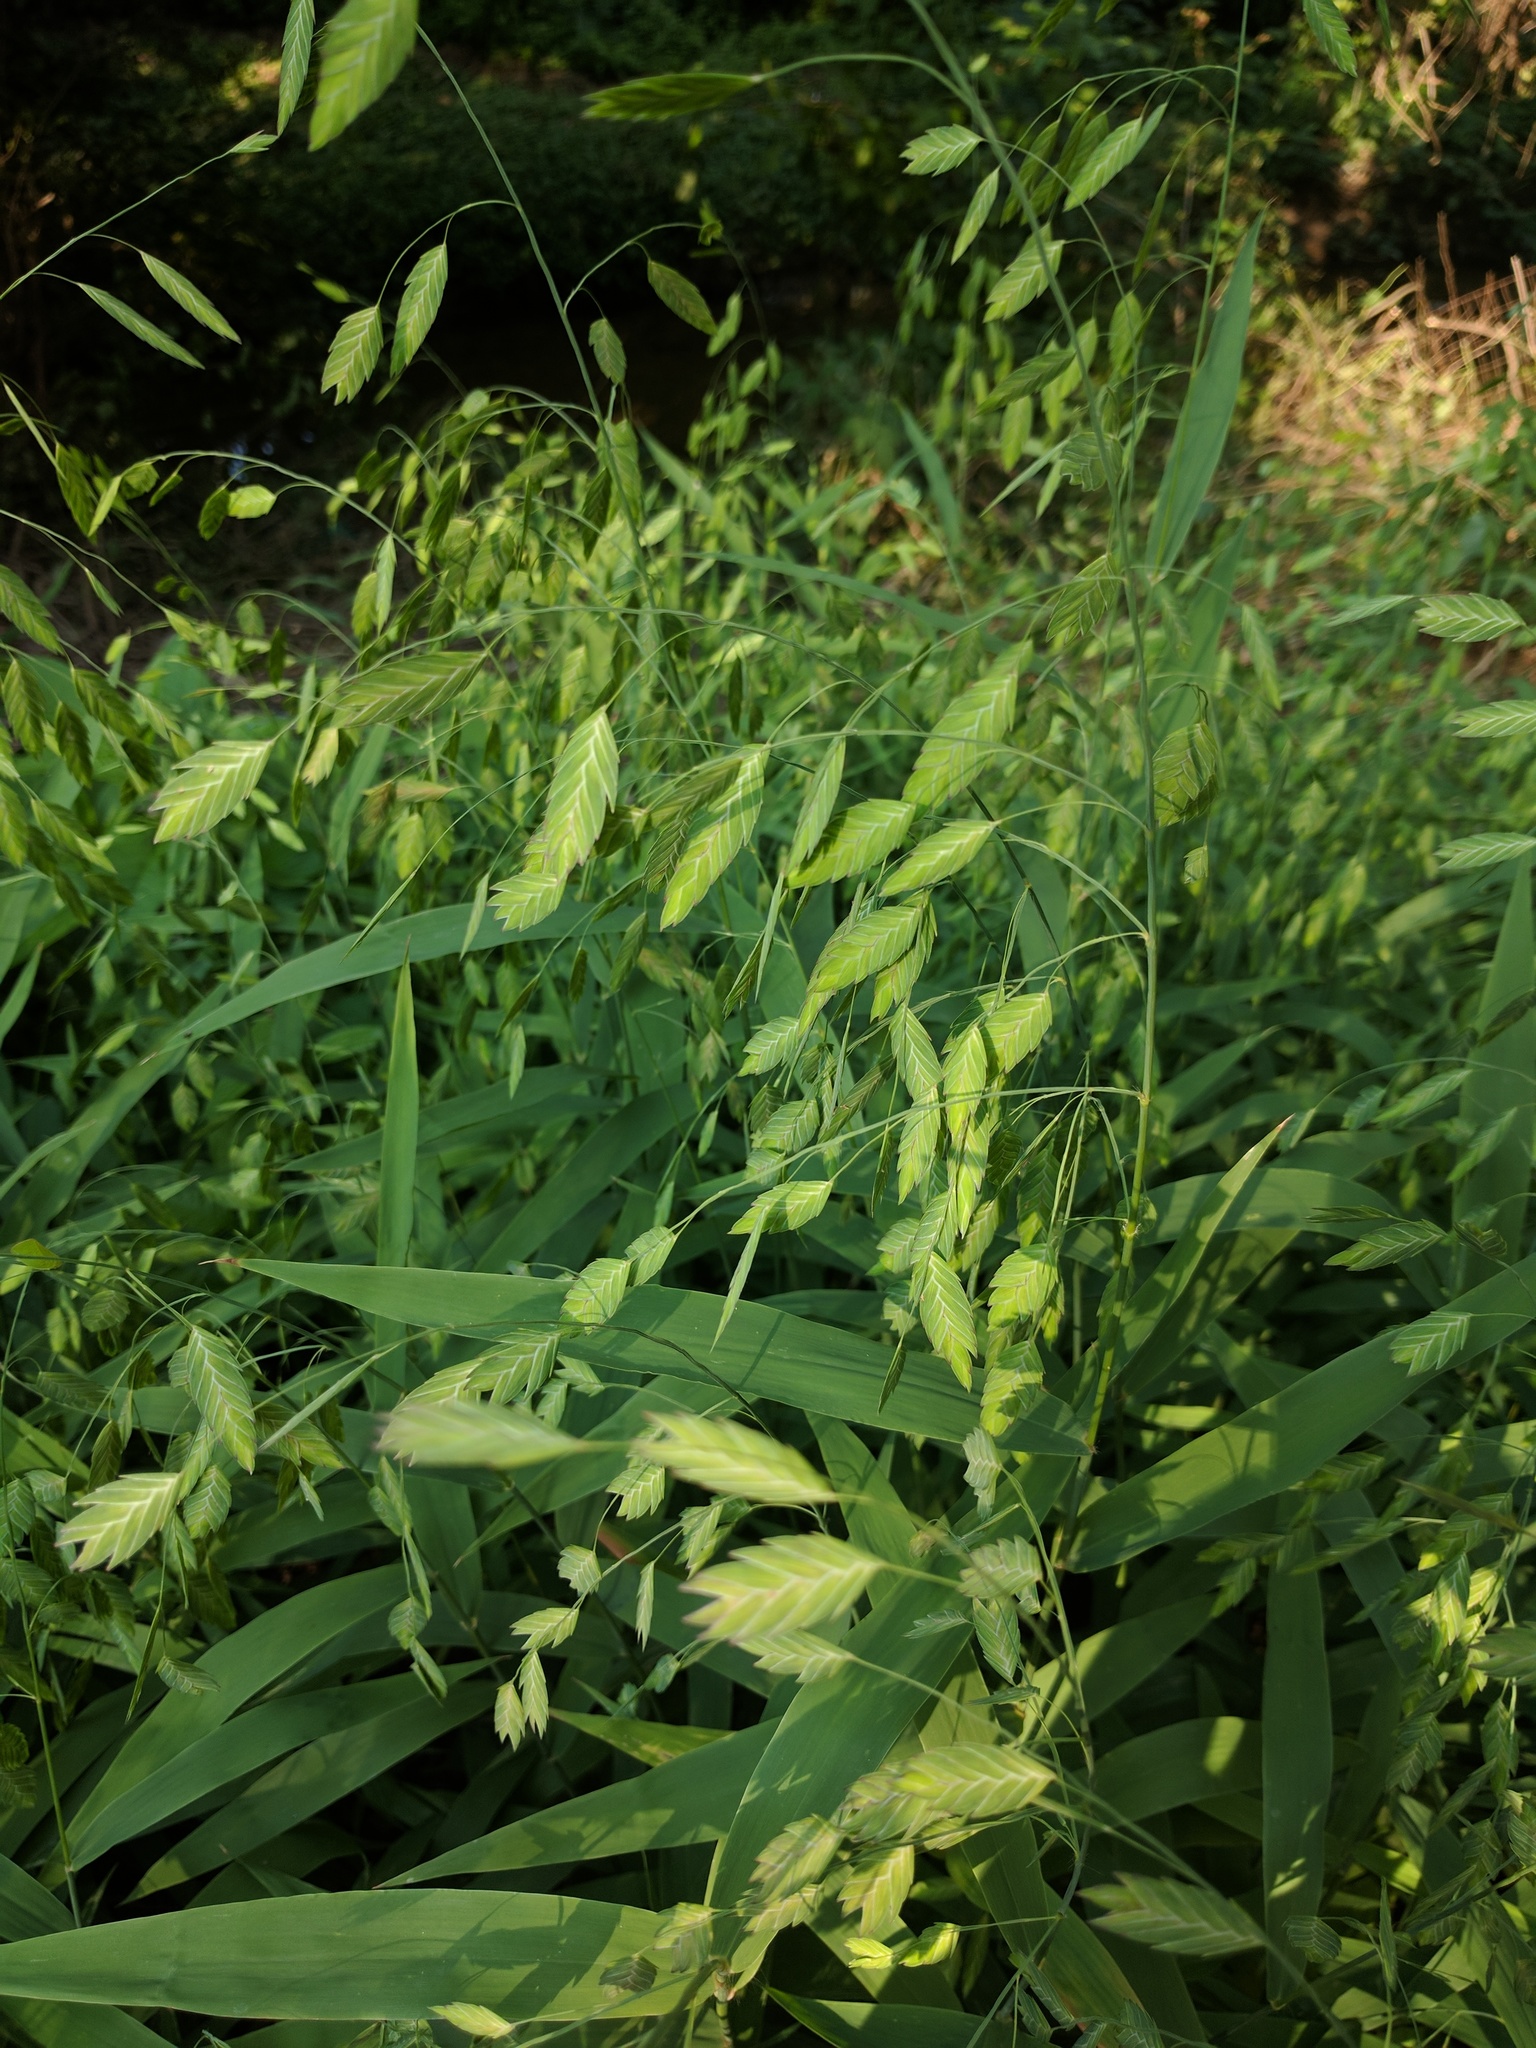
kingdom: Plantae
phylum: Tracheophyta
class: Liliopsida
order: Poales
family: Poaceae
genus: Chasmanthium
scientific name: Chasmanthium latifolium
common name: Broad-leaved chasmanthium
